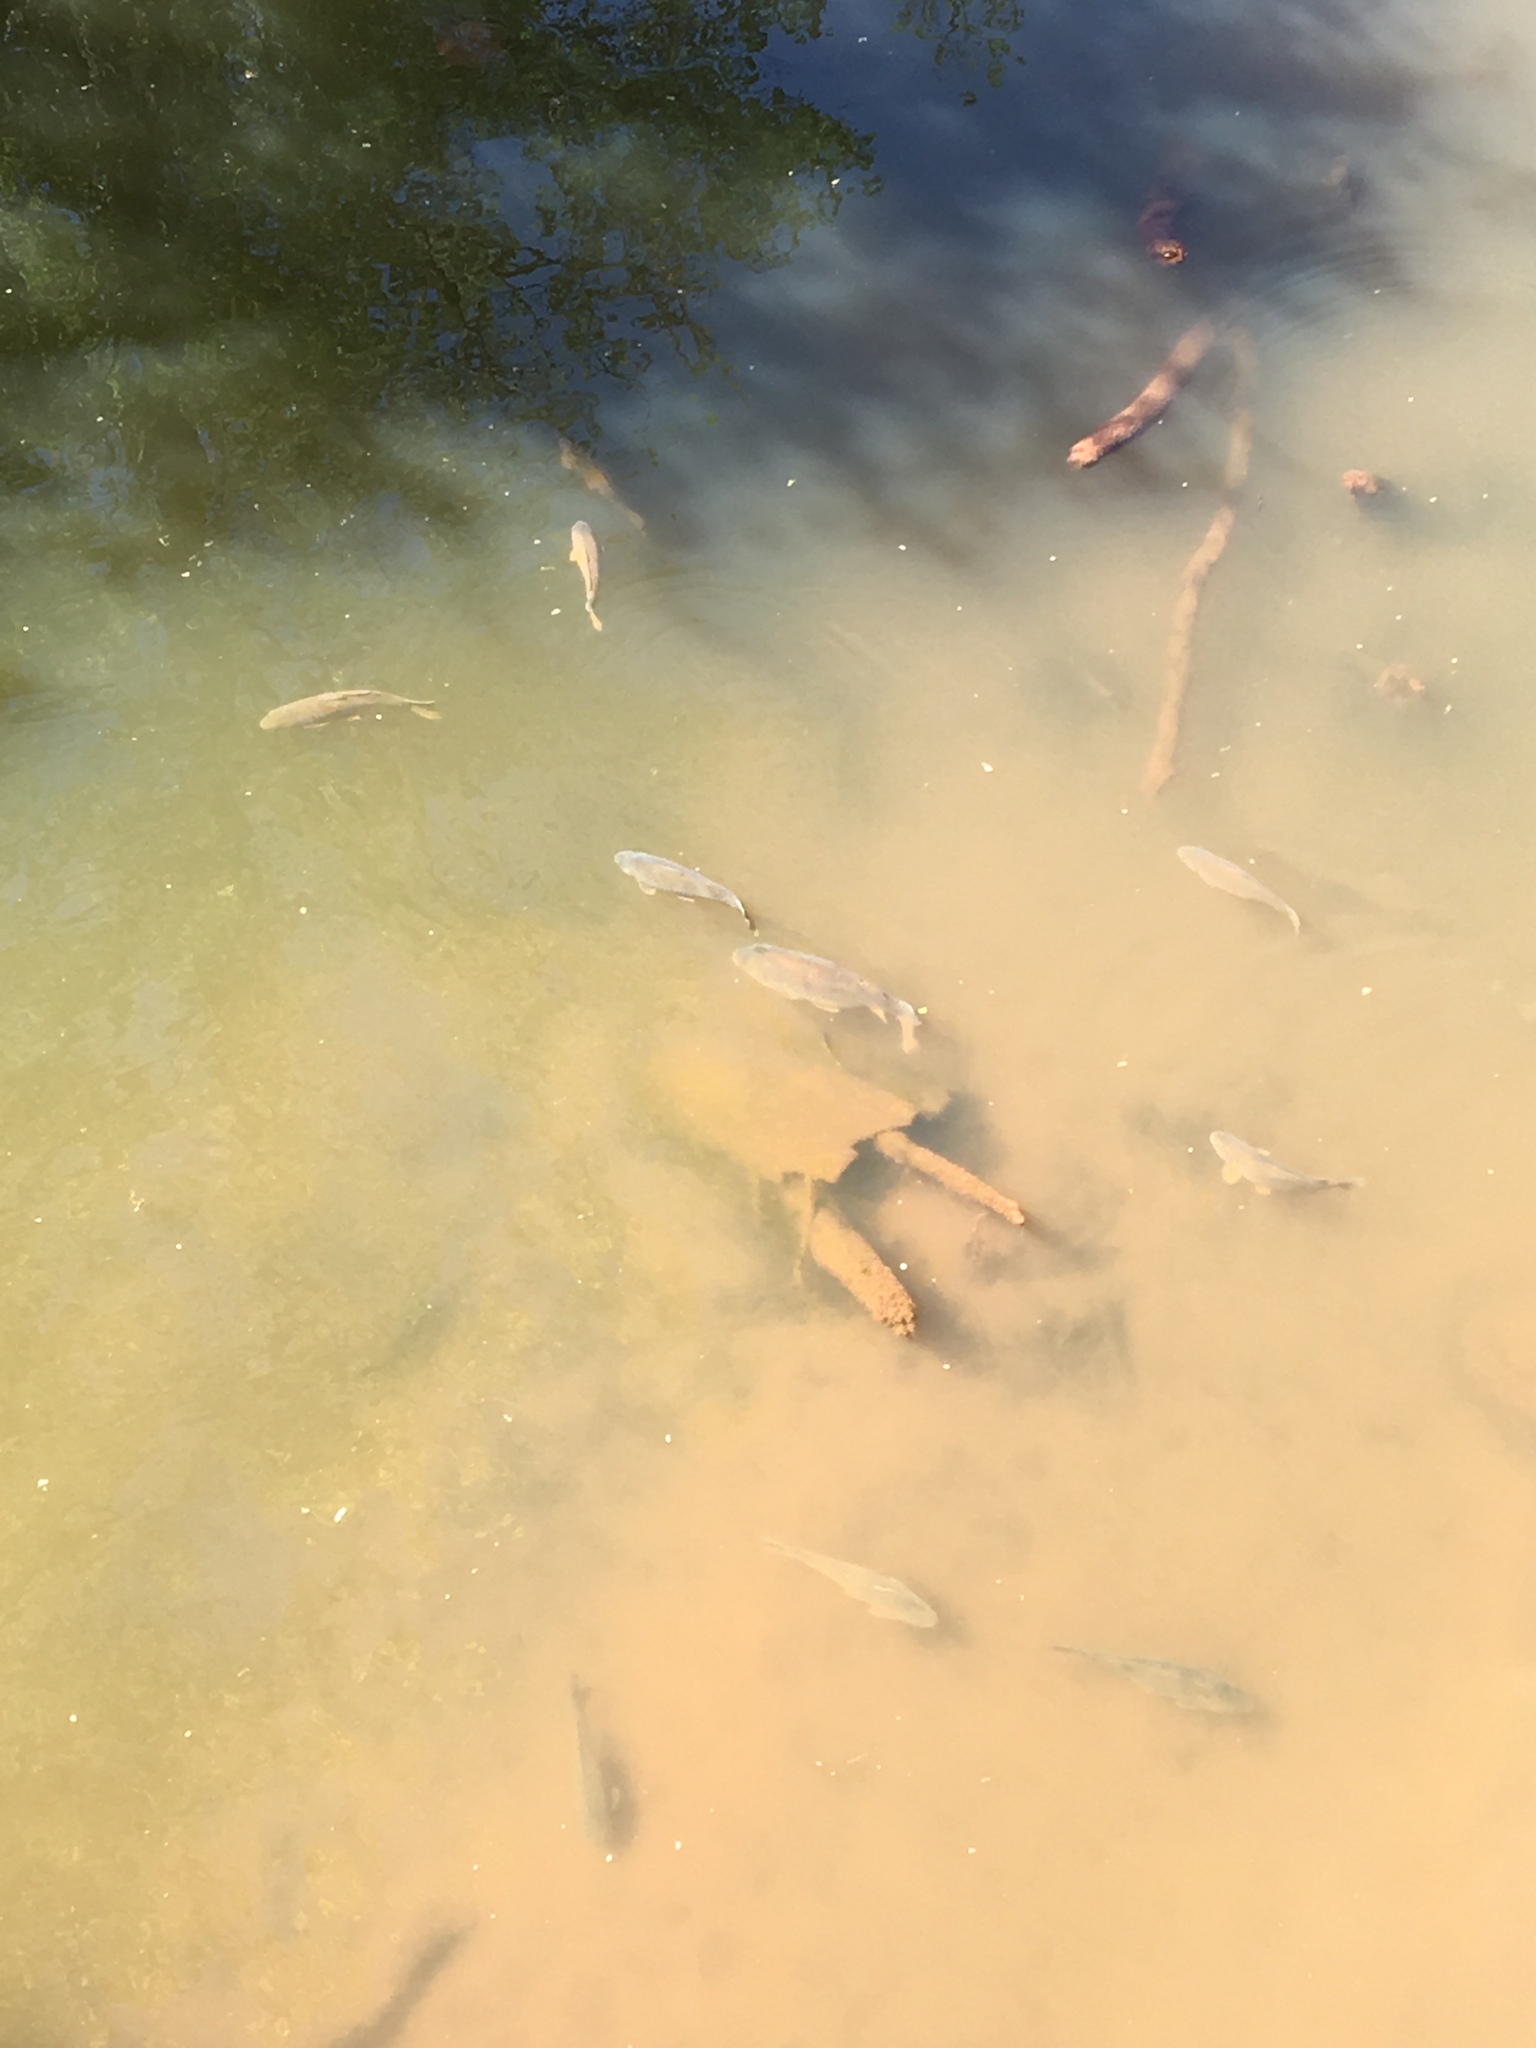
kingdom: Animalia
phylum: Chordata
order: Cypriniformes
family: Cyprinidae
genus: Cyprinus
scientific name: Cyprinus carpio
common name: Common carp
